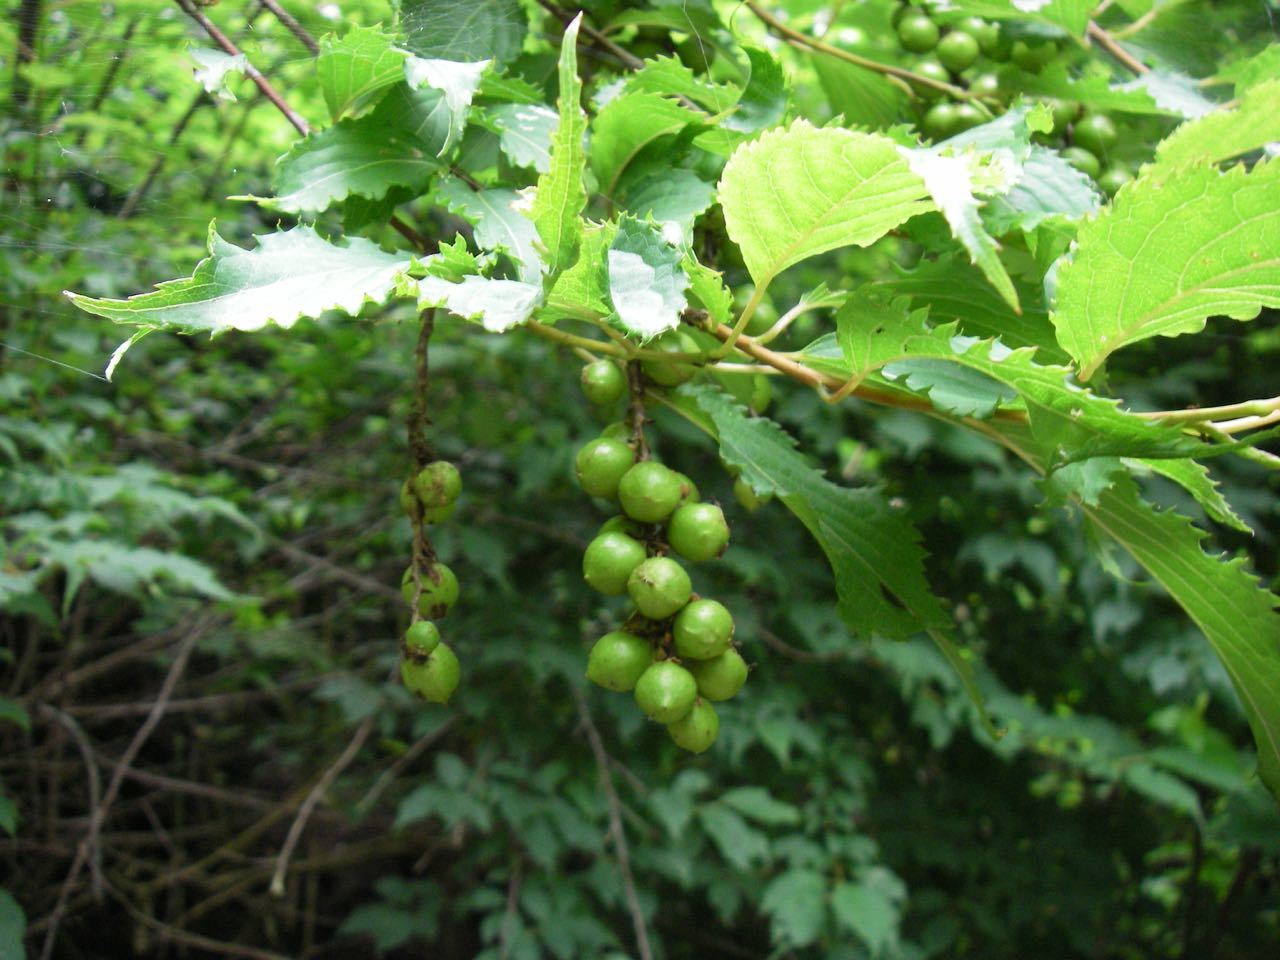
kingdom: Plantae
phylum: Tracheophyta
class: Magnoliopsida
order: Crossosomatales
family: Stachyuraceae
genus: Stachyurus
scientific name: Stachyurus praecox
